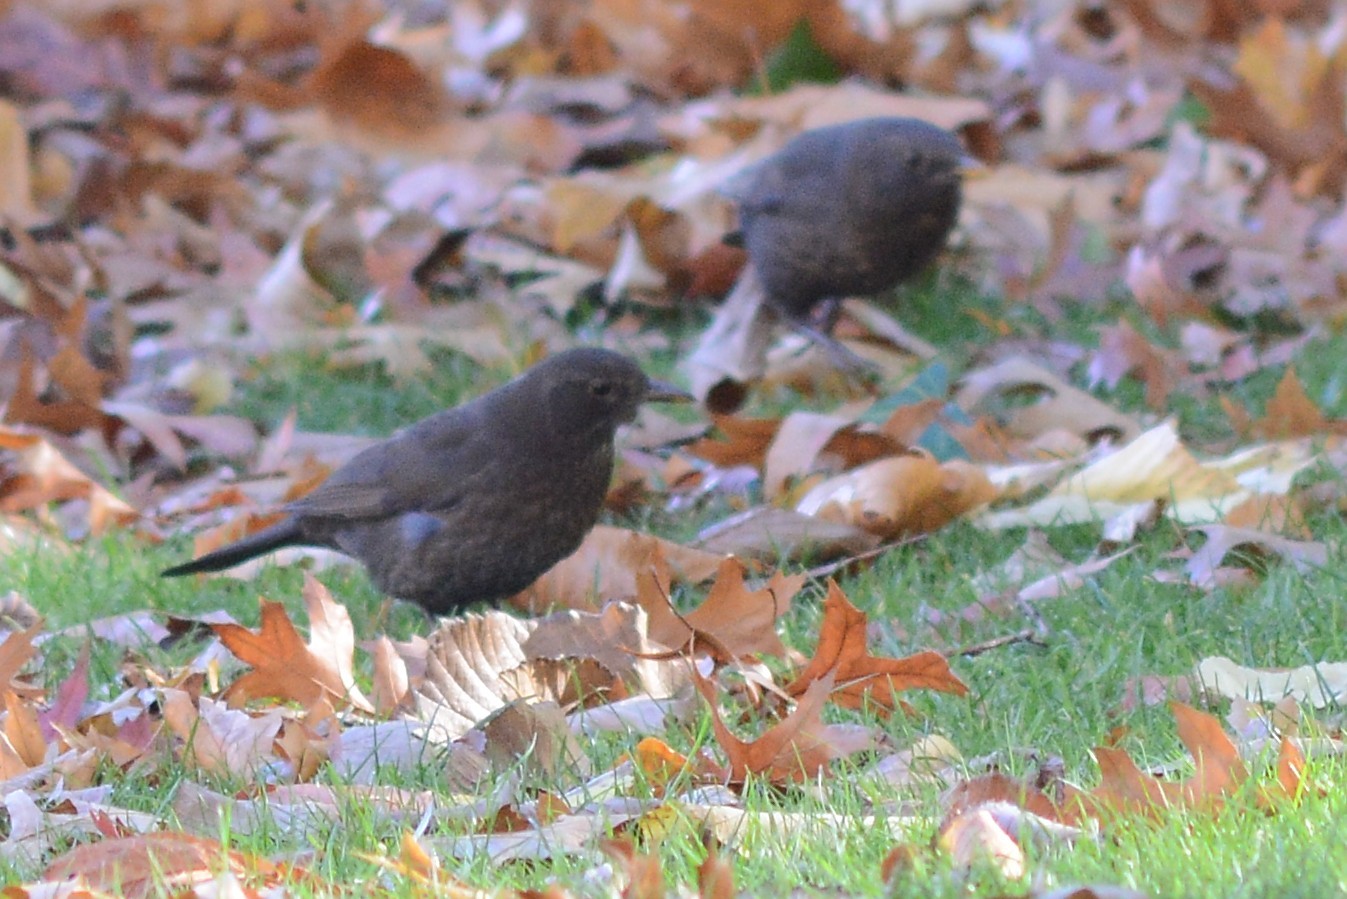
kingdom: Animalia
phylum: Chordata
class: Aves
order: Passeriformes
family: Turdidae
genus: Turdus
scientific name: Turdus merula
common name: Common blackbird
